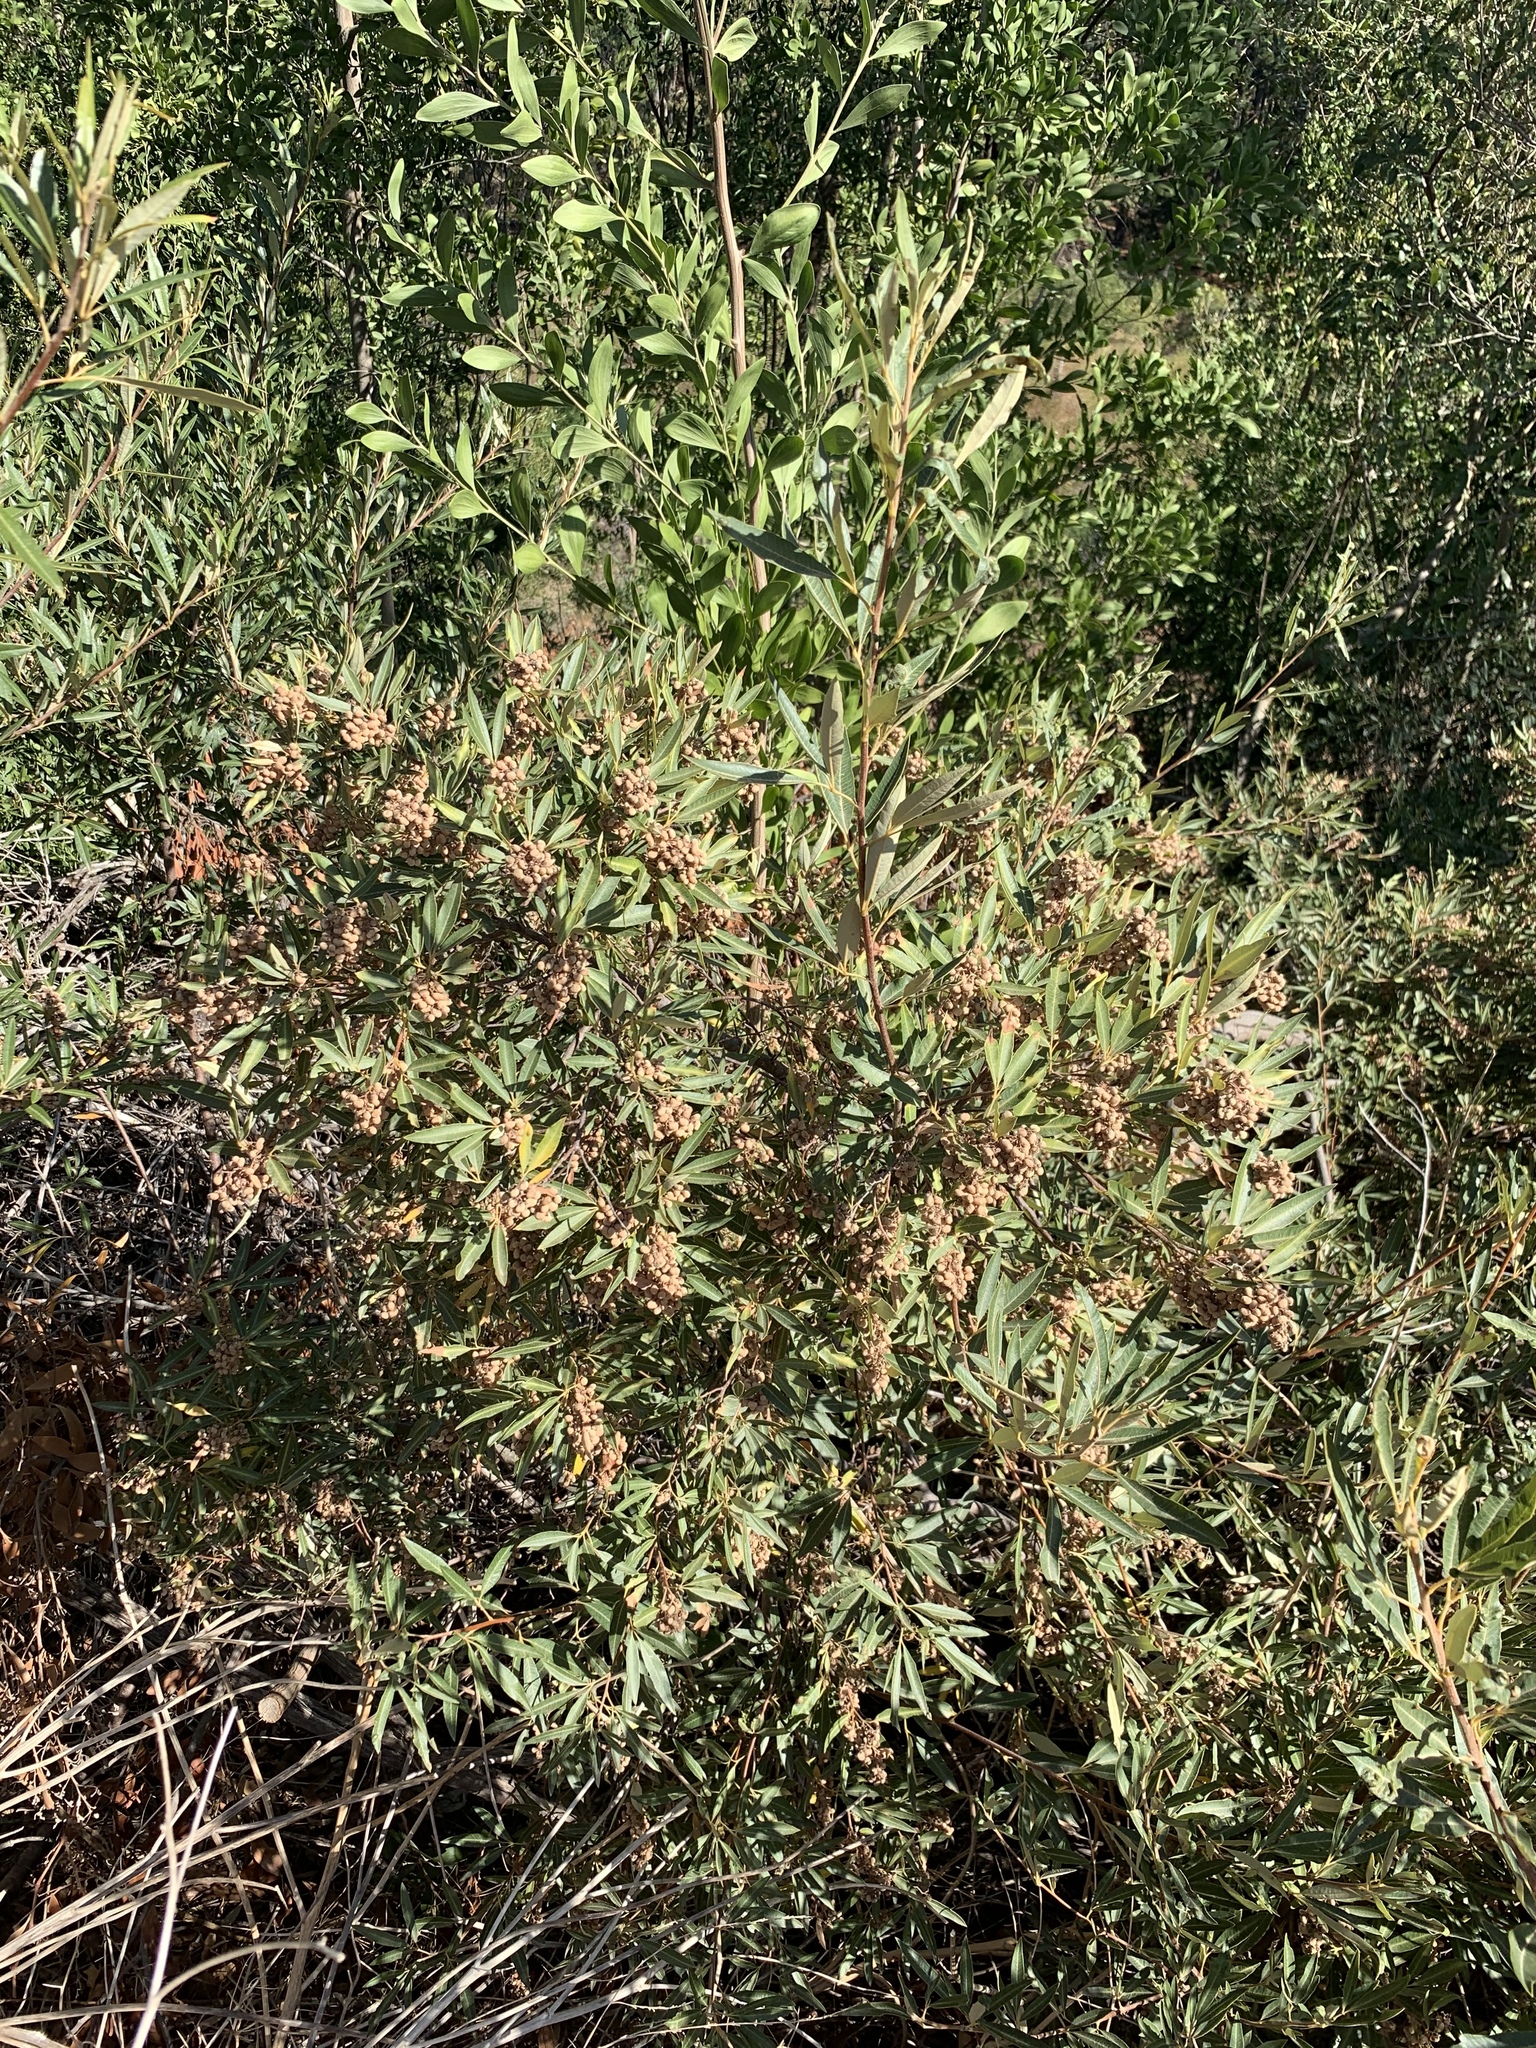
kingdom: Animalia
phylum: Arthropoda
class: Insecta
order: Diptera
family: Cecidomyiidae
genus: Dasineura
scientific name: Dasineura rubiformis
